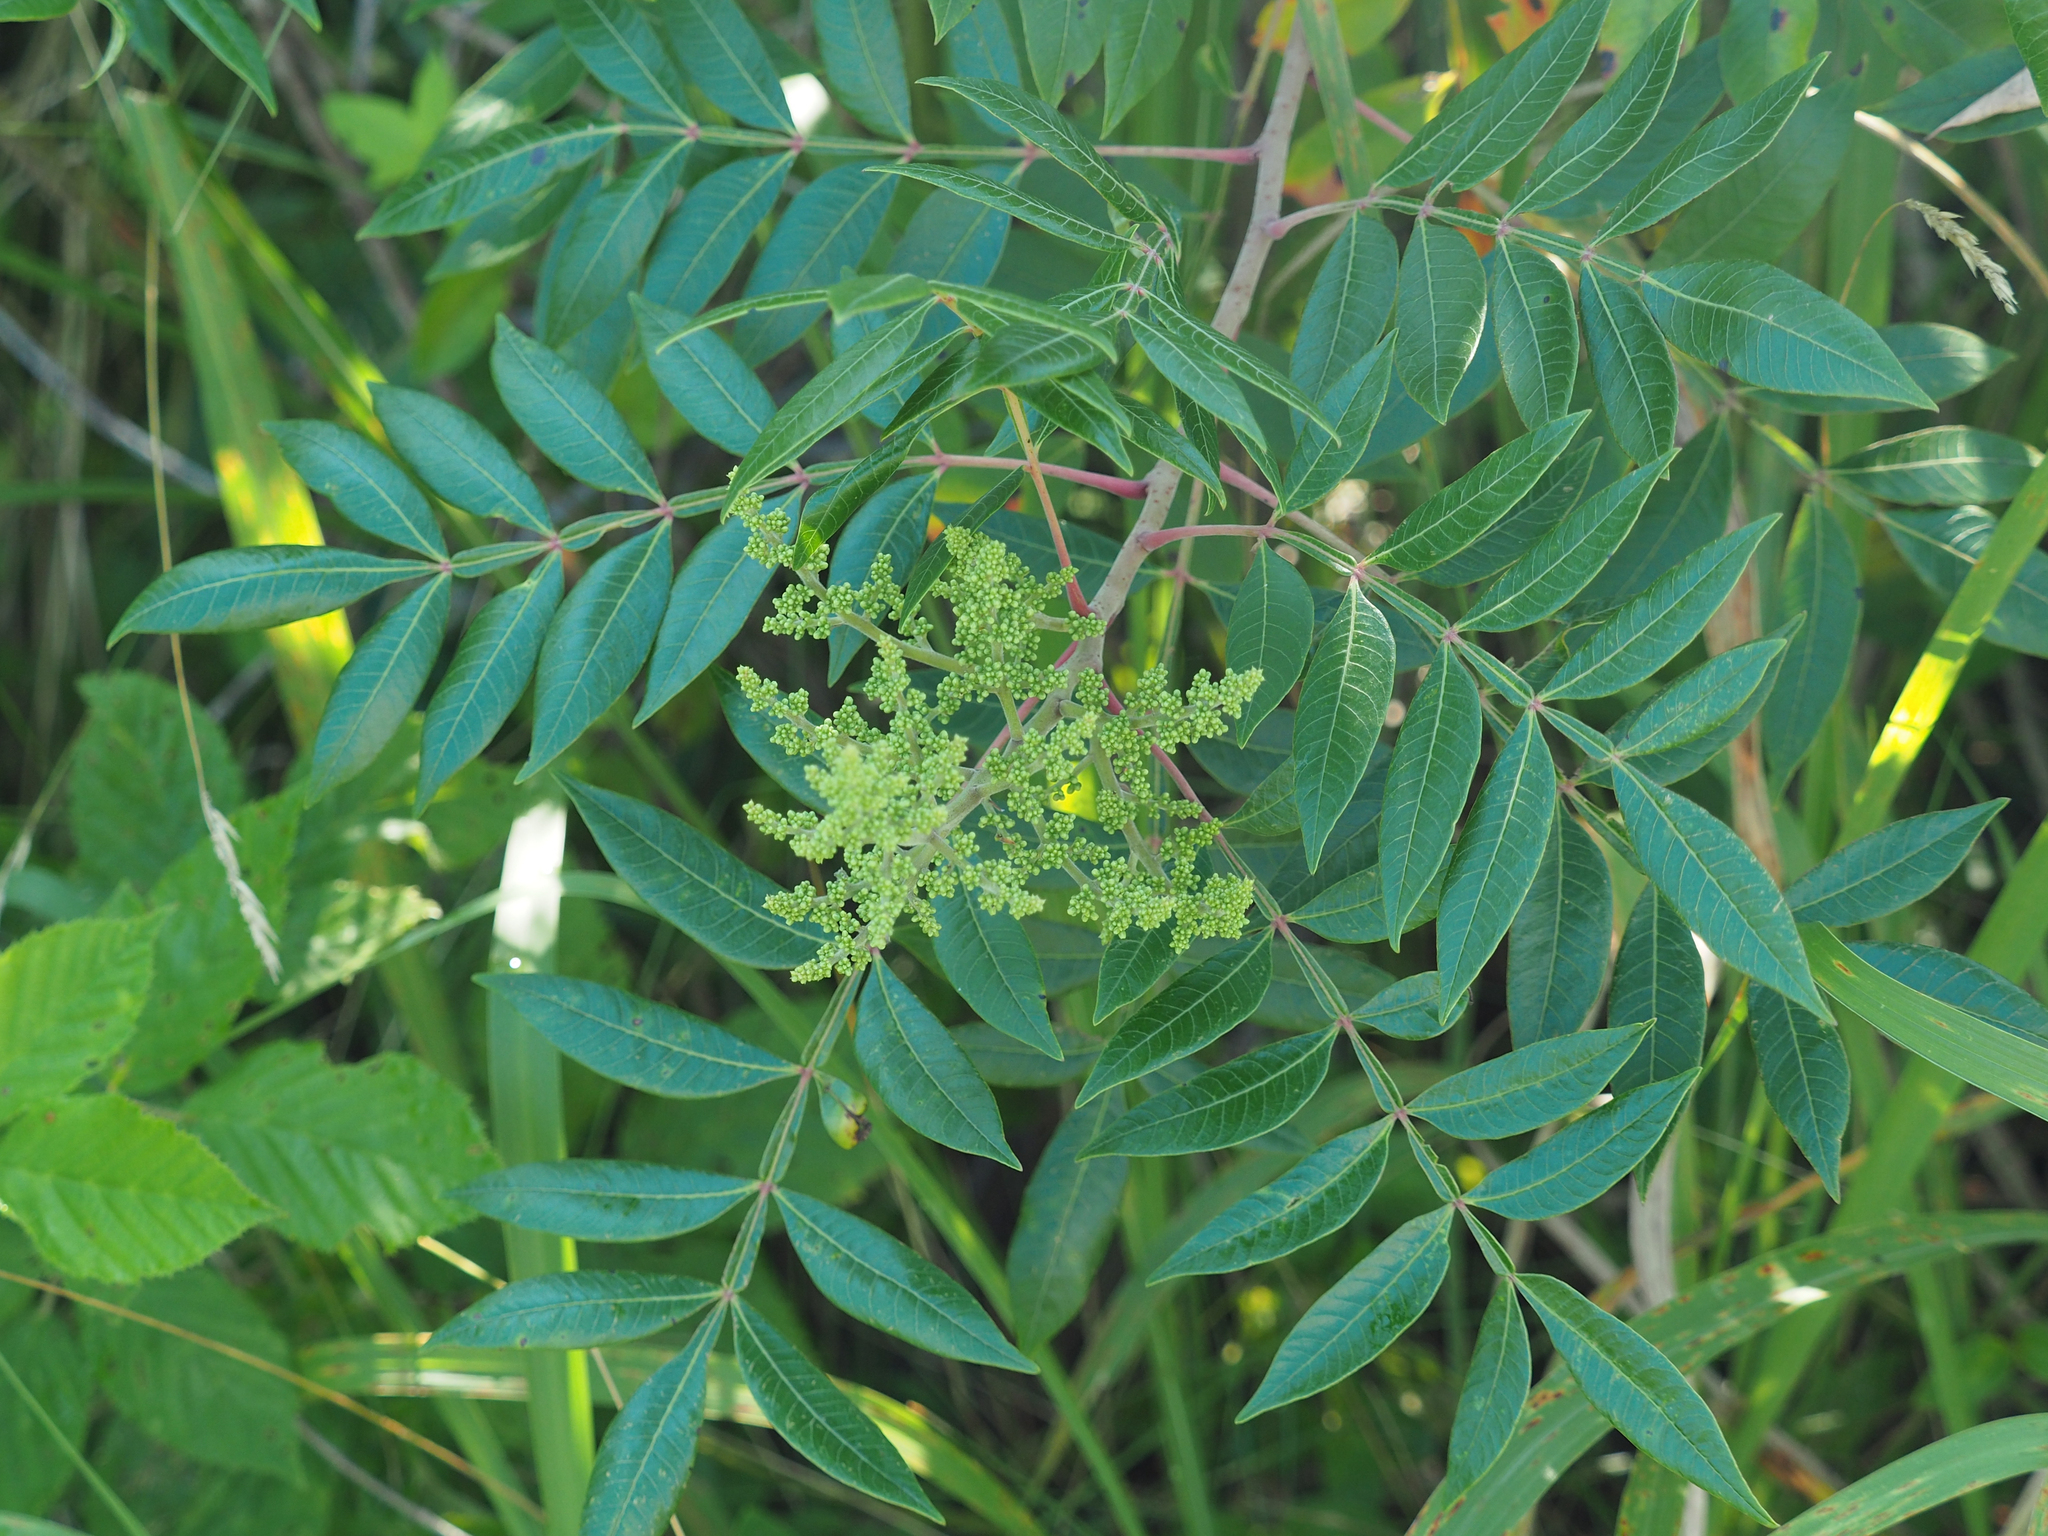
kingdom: Plantae
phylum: Tracheophyta
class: Magnoliopsida
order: Sapindales
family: Anacardiaceae
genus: Rhus
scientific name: Rhus copallina
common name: Shining sumac
